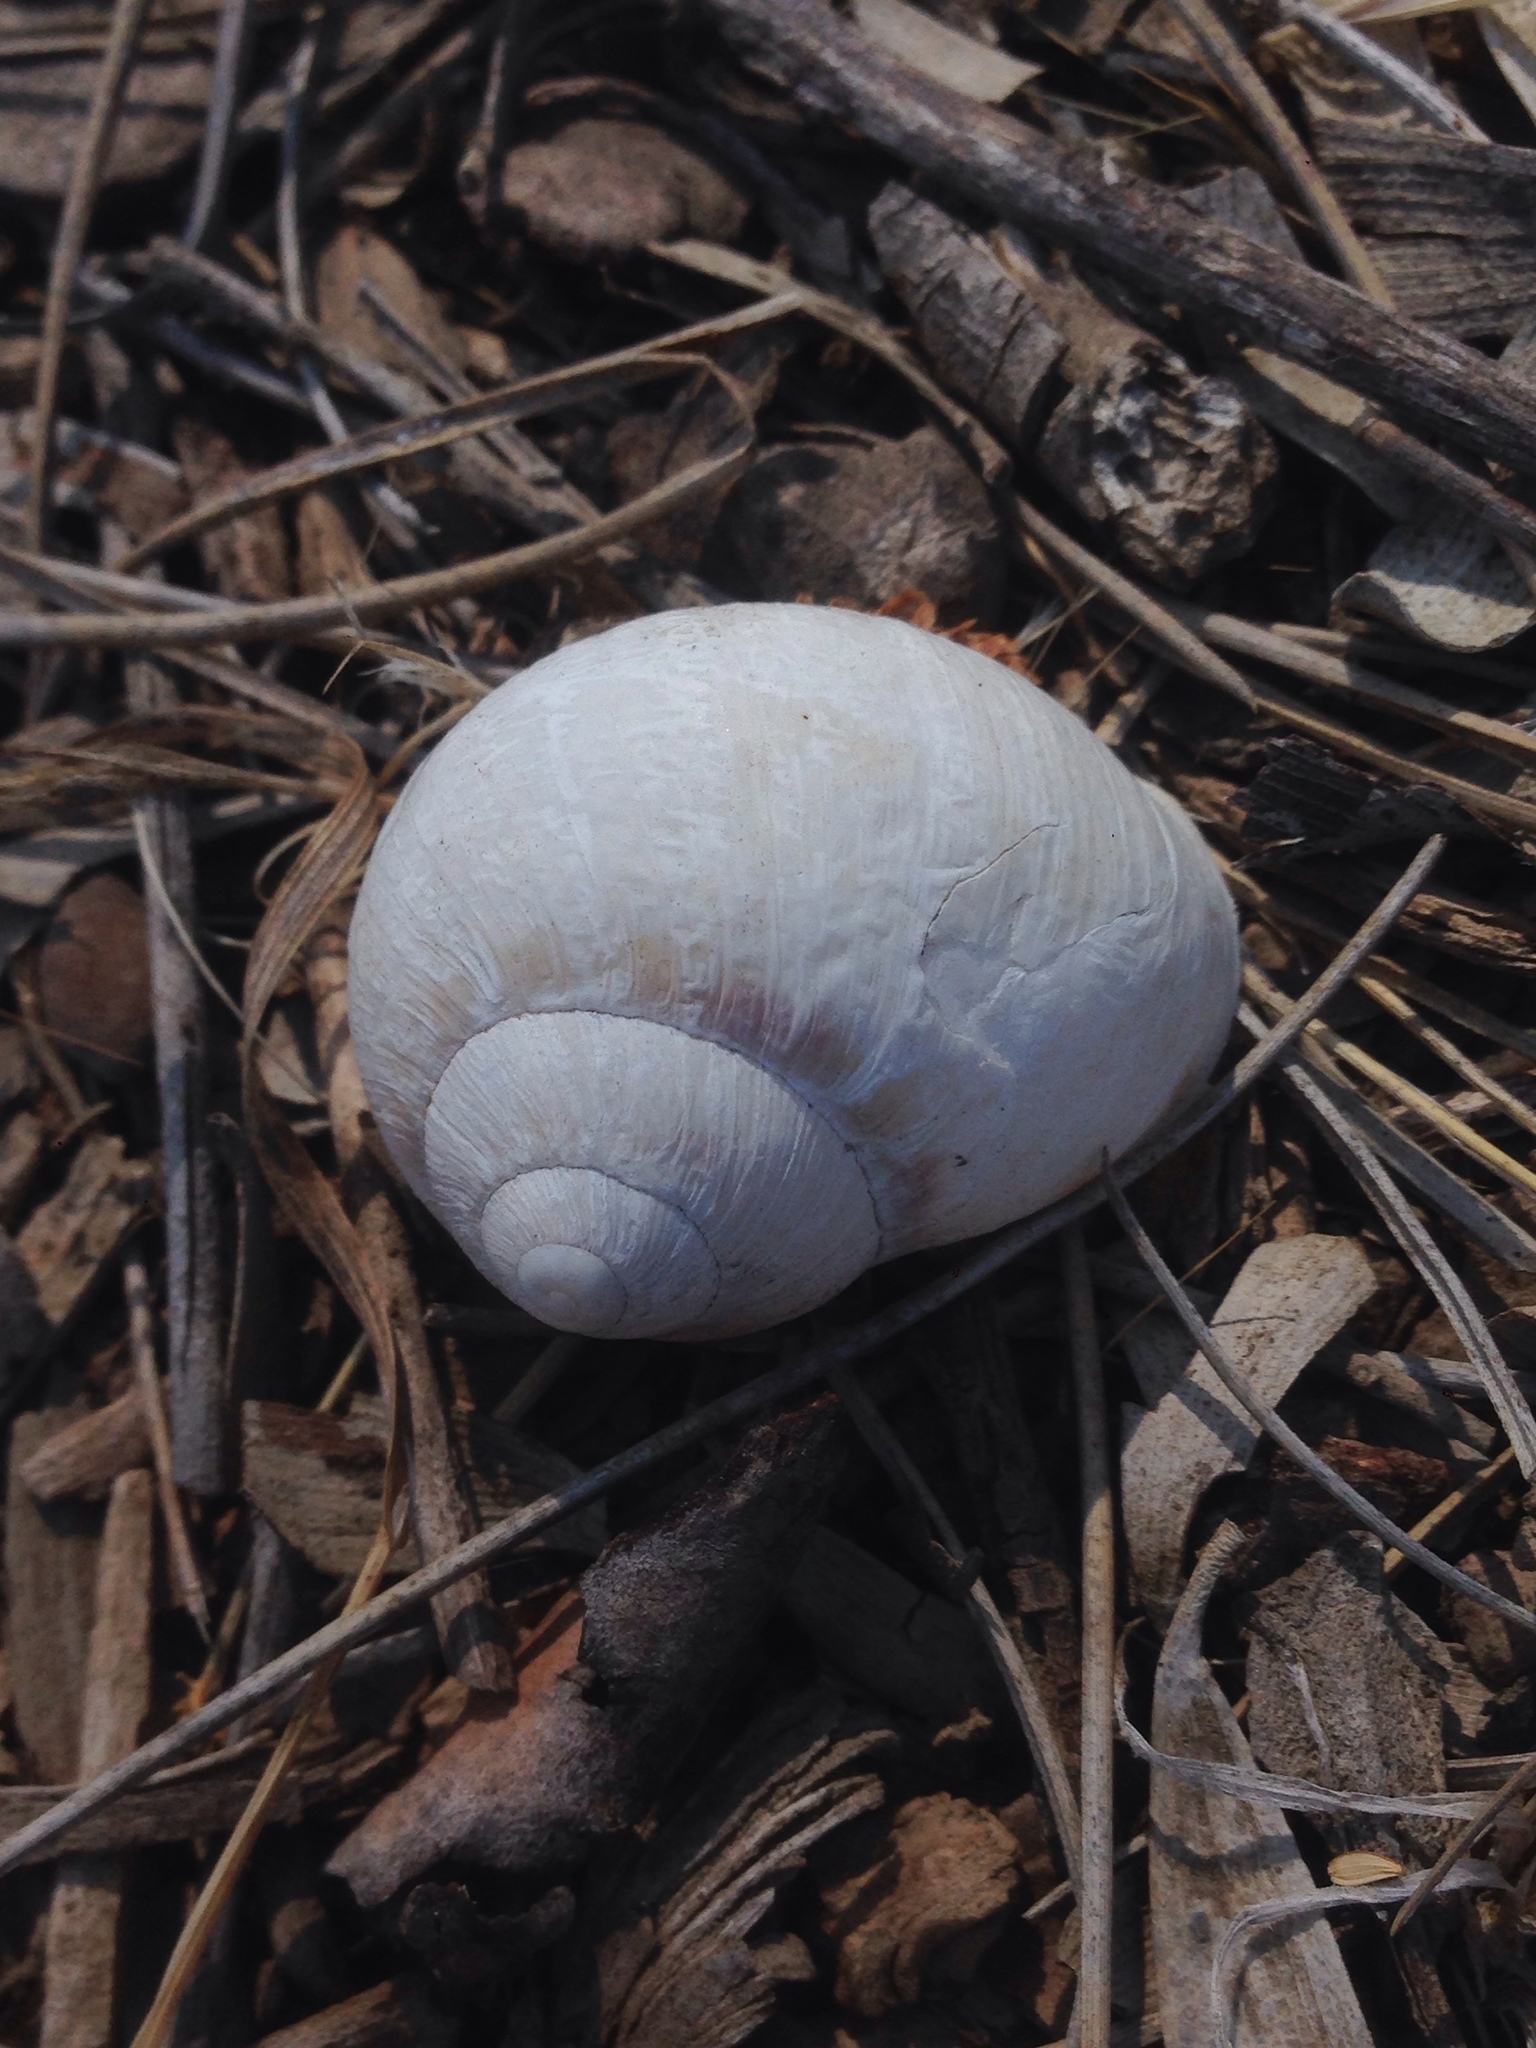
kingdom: Animalia
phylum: Mollusca
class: Gastropoda
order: Stylommatophora
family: Helicidae
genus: Cornu
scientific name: Cornu aspersum
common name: Brown garden snail
